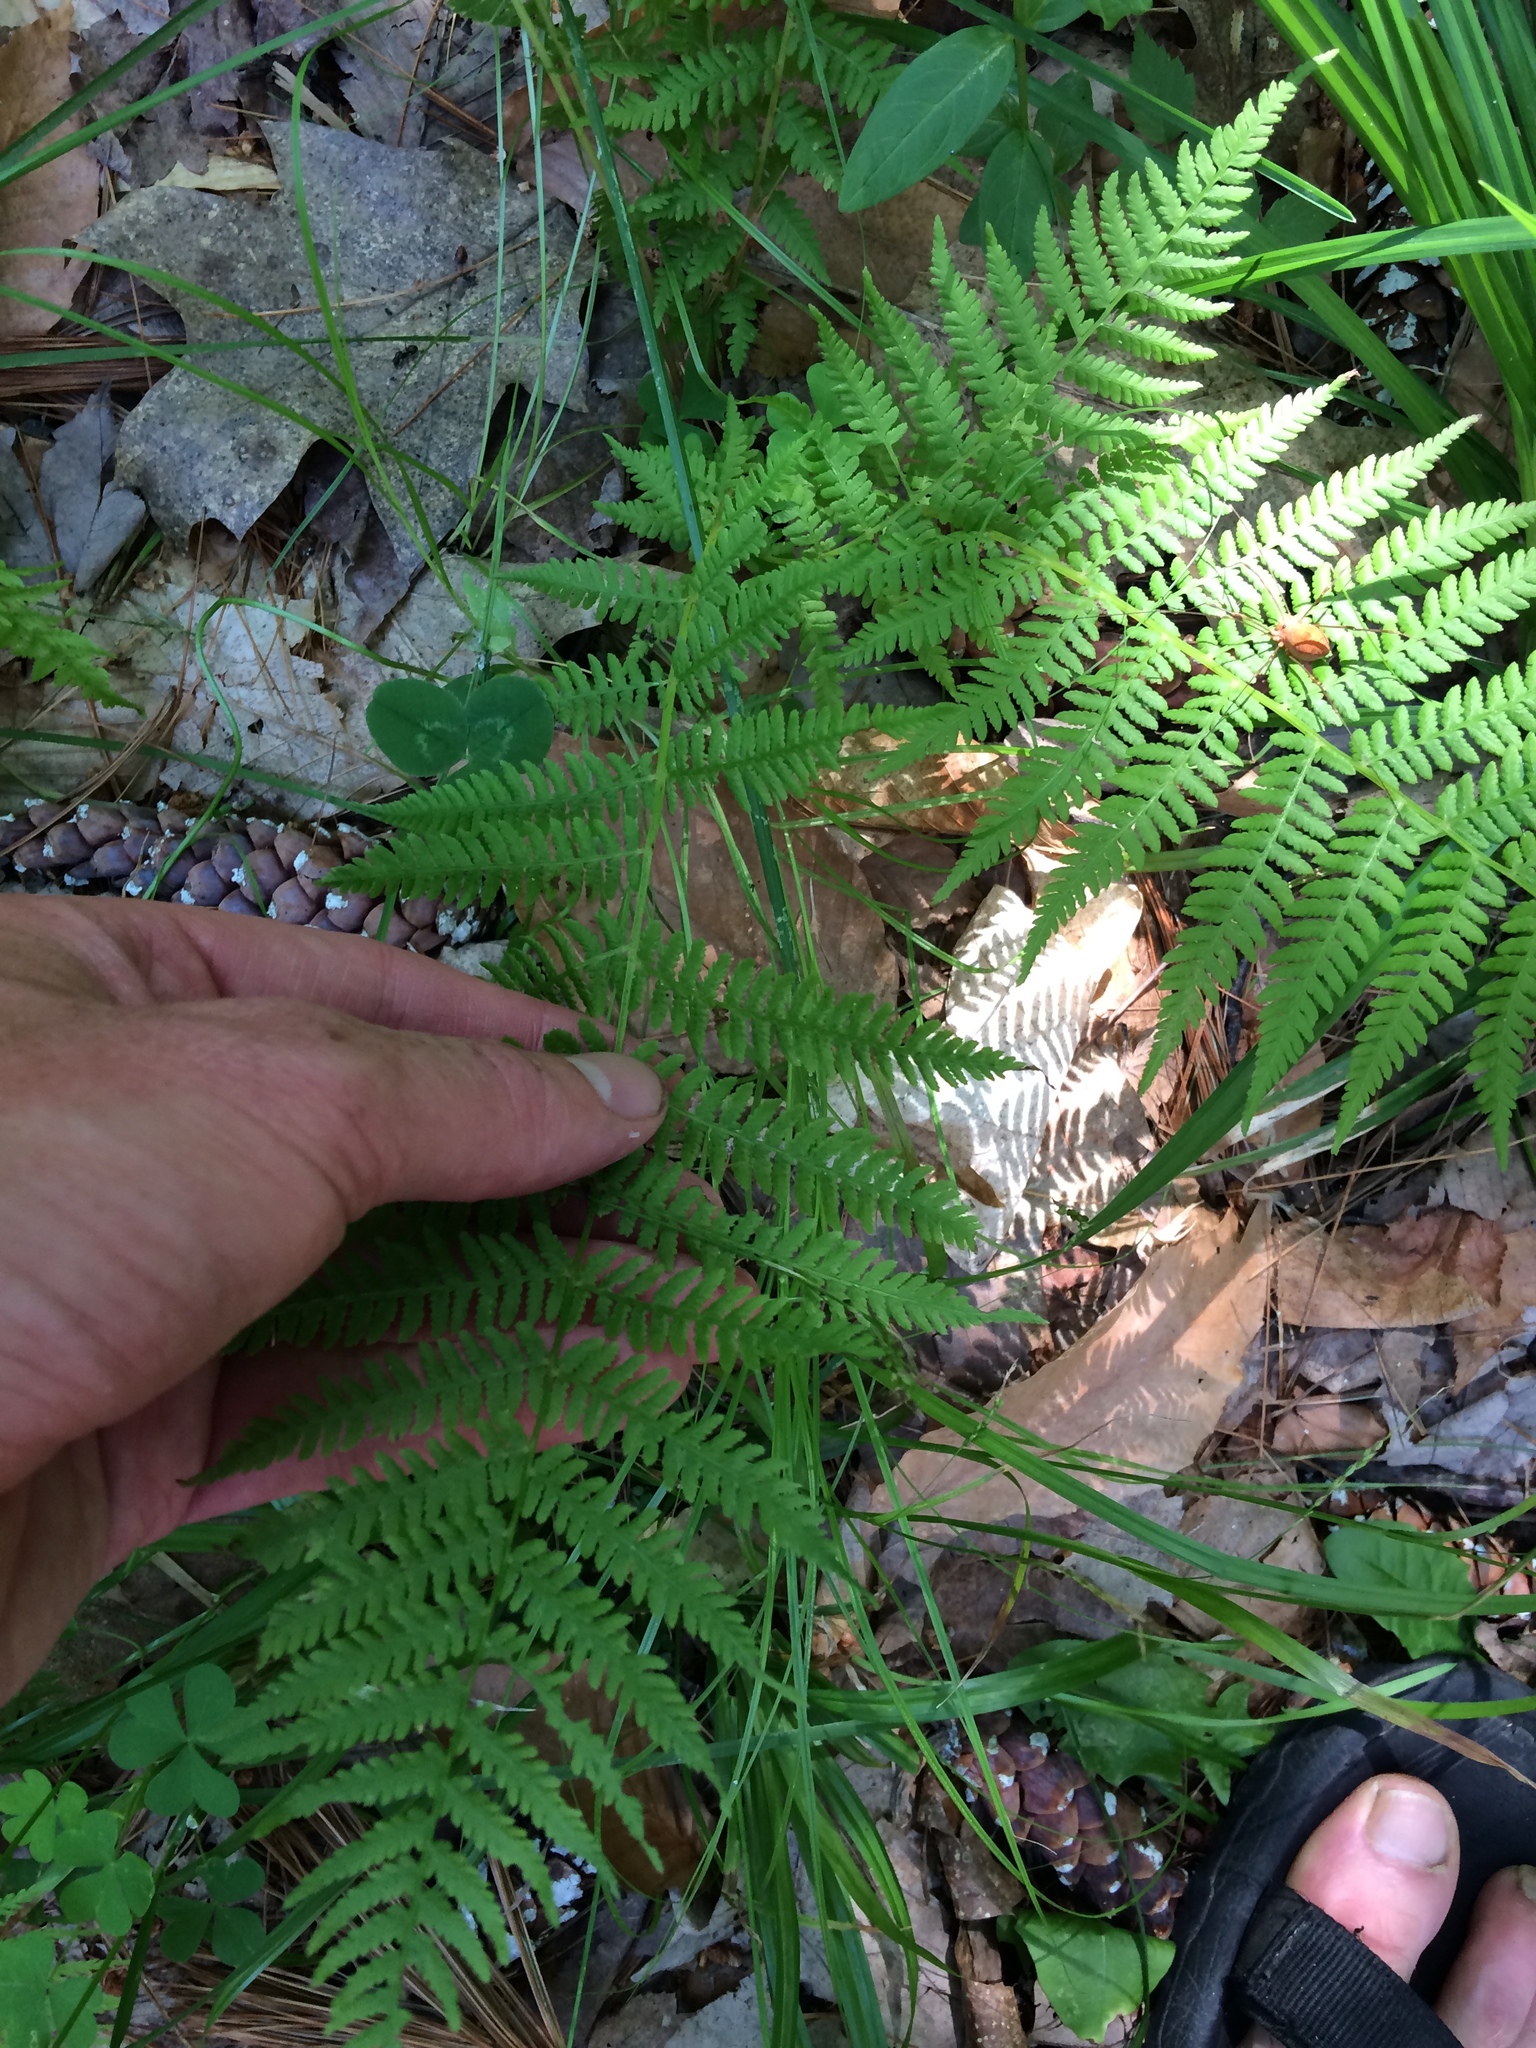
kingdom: Plantae
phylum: Tracheophyta
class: Polypodiopsida
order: Polypodiales
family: Athyriaceae
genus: Athyrium
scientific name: Athyrium angustum
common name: Northern lady fern
